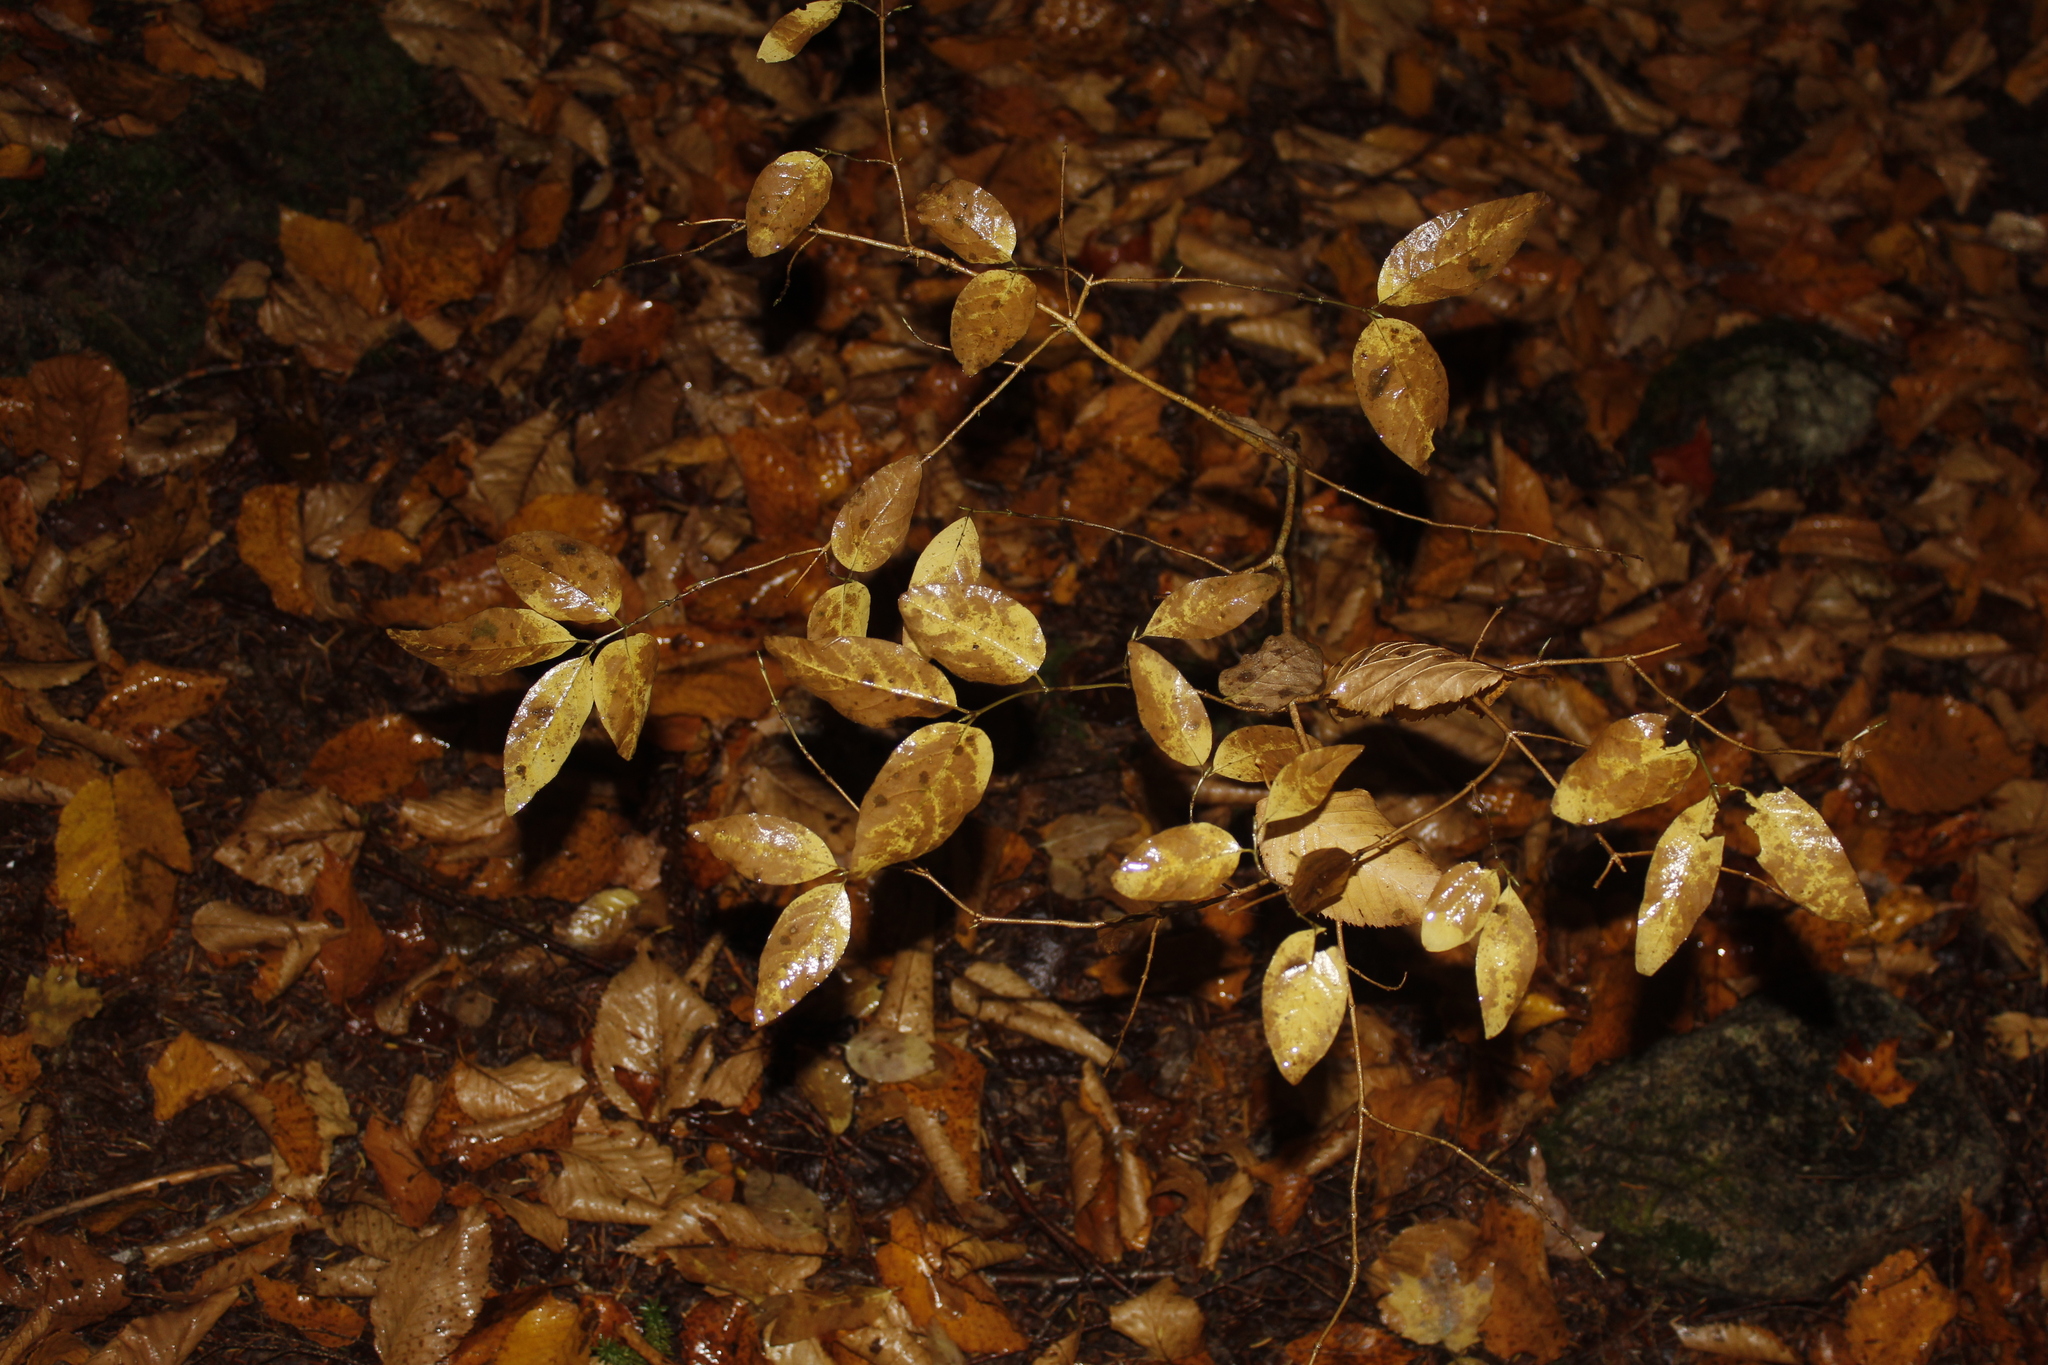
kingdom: Plantae
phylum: Tracheophyta
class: Magnoliopsida
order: Dipsacales
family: Caprifoliaceae
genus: Lonicera
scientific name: Lonicera canadensis
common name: American fly-honeysuckle
